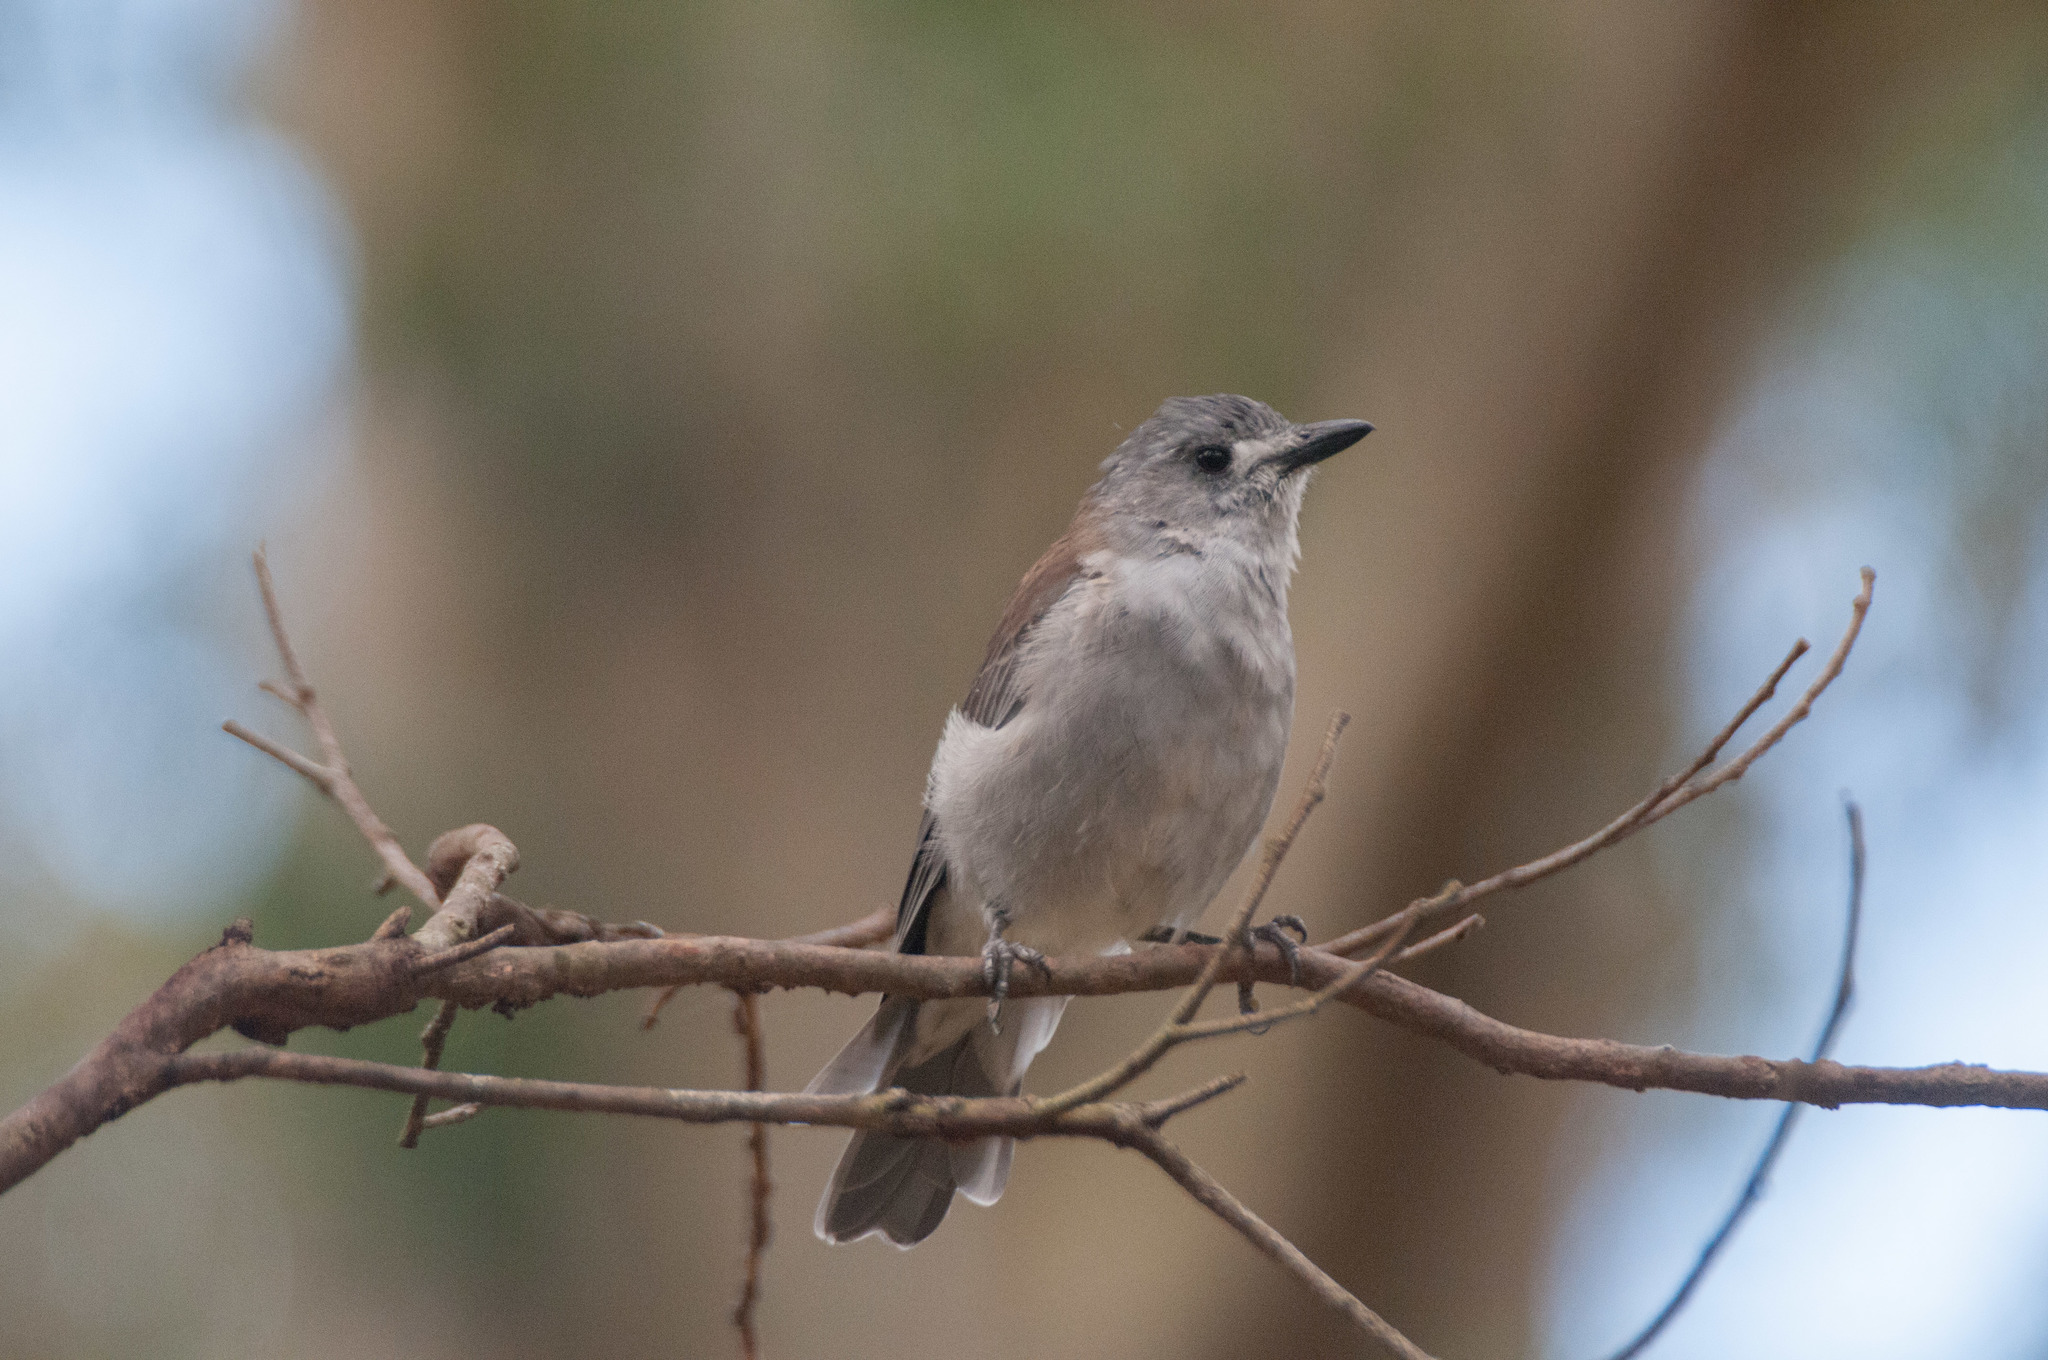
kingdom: Animalia
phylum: Chordata
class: Aves
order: Passeriformes
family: Pachycephalidae
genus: Colluricincla
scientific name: Colluricincla harmonica
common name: Grey shrikethrush
